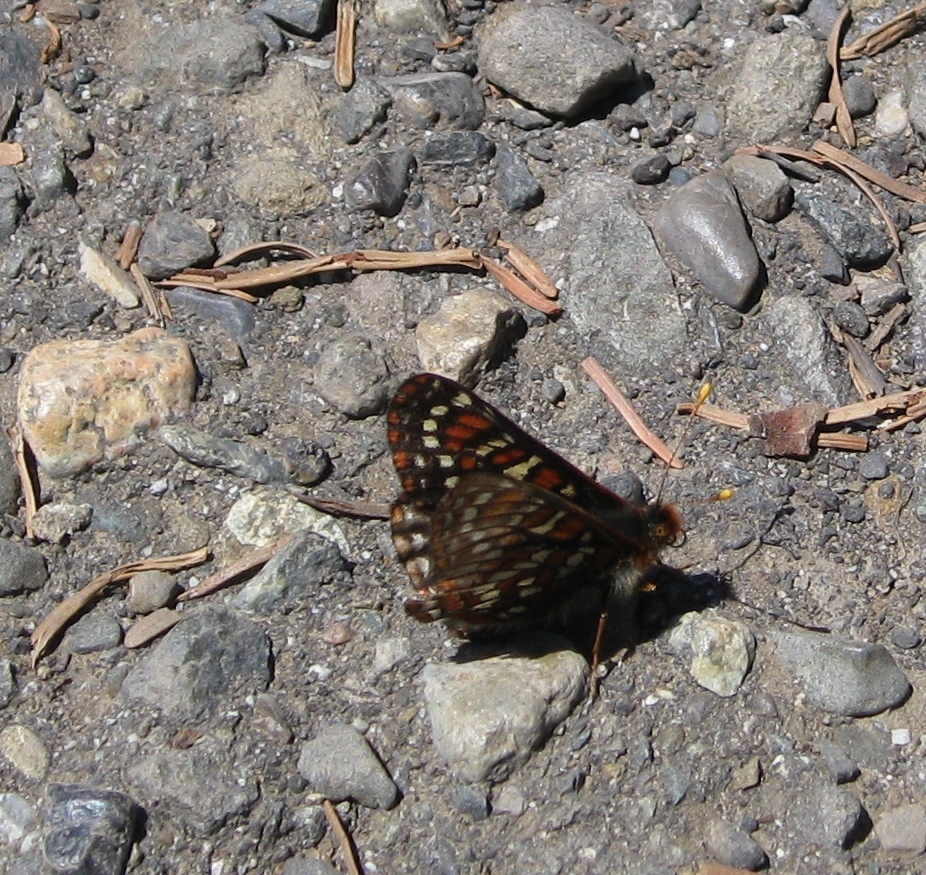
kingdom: Animalia
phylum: Arthropoda
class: Insecta
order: Lepidoptera
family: Nymphalidae
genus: Occidryas
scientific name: Occidryas editha
